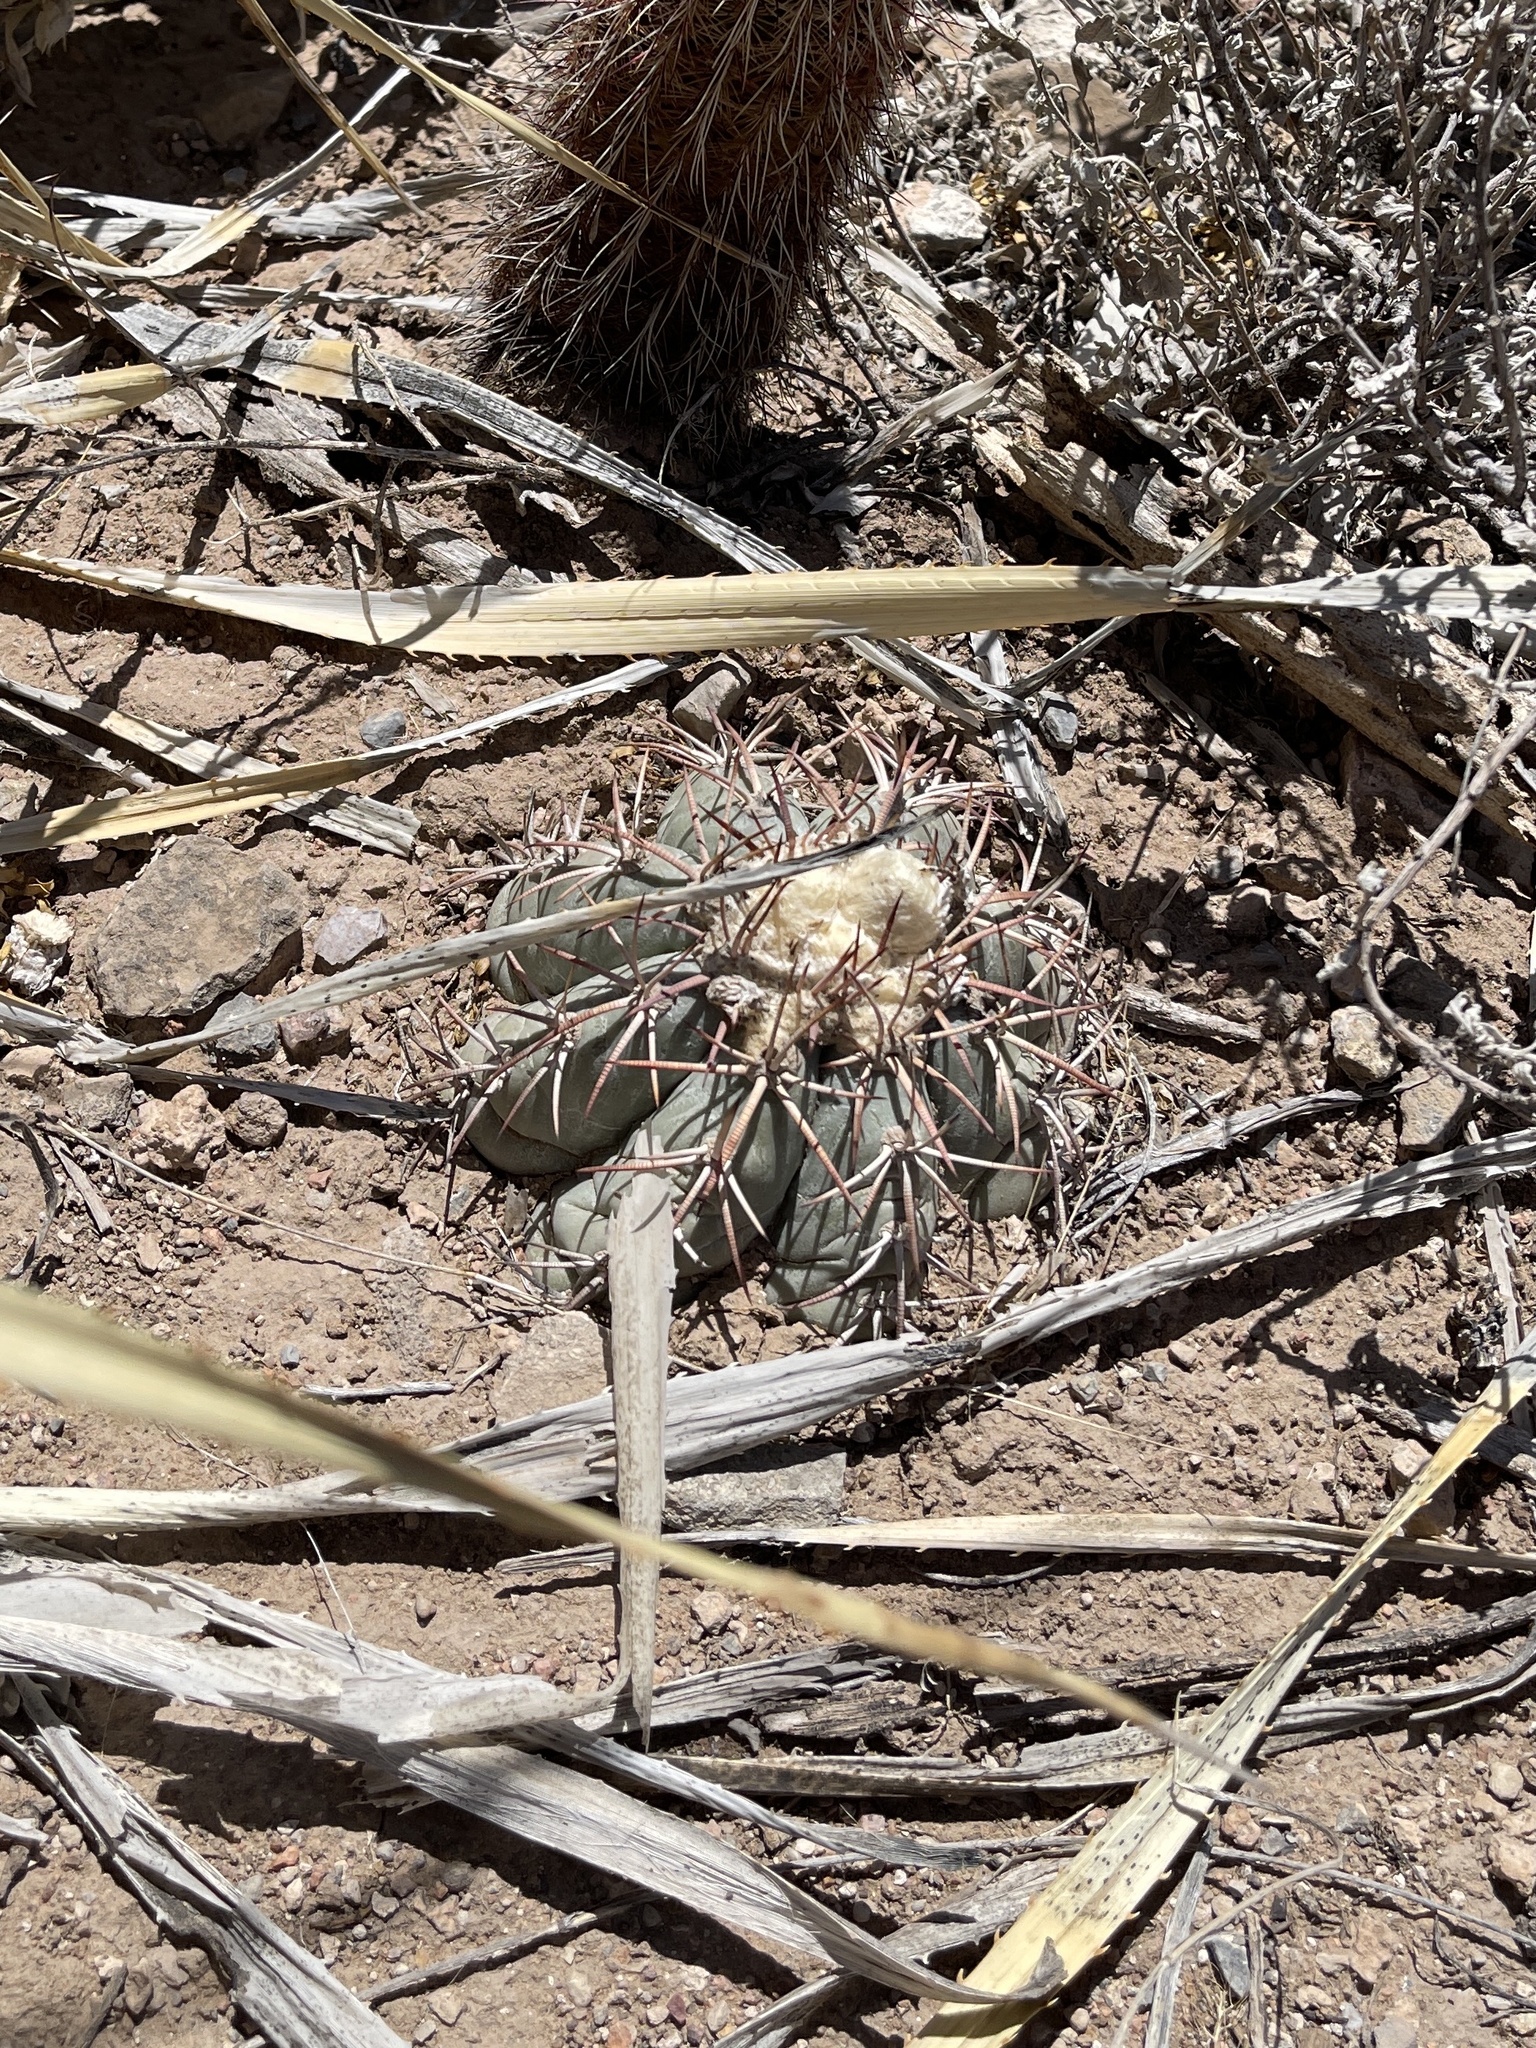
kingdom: Plantae
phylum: Tracheophyta
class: Magnoliopsida
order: Caryophyllales
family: Cactaceae
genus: Echinocactus
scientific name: Echinocactus horizonthalonius
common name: Devilshead
